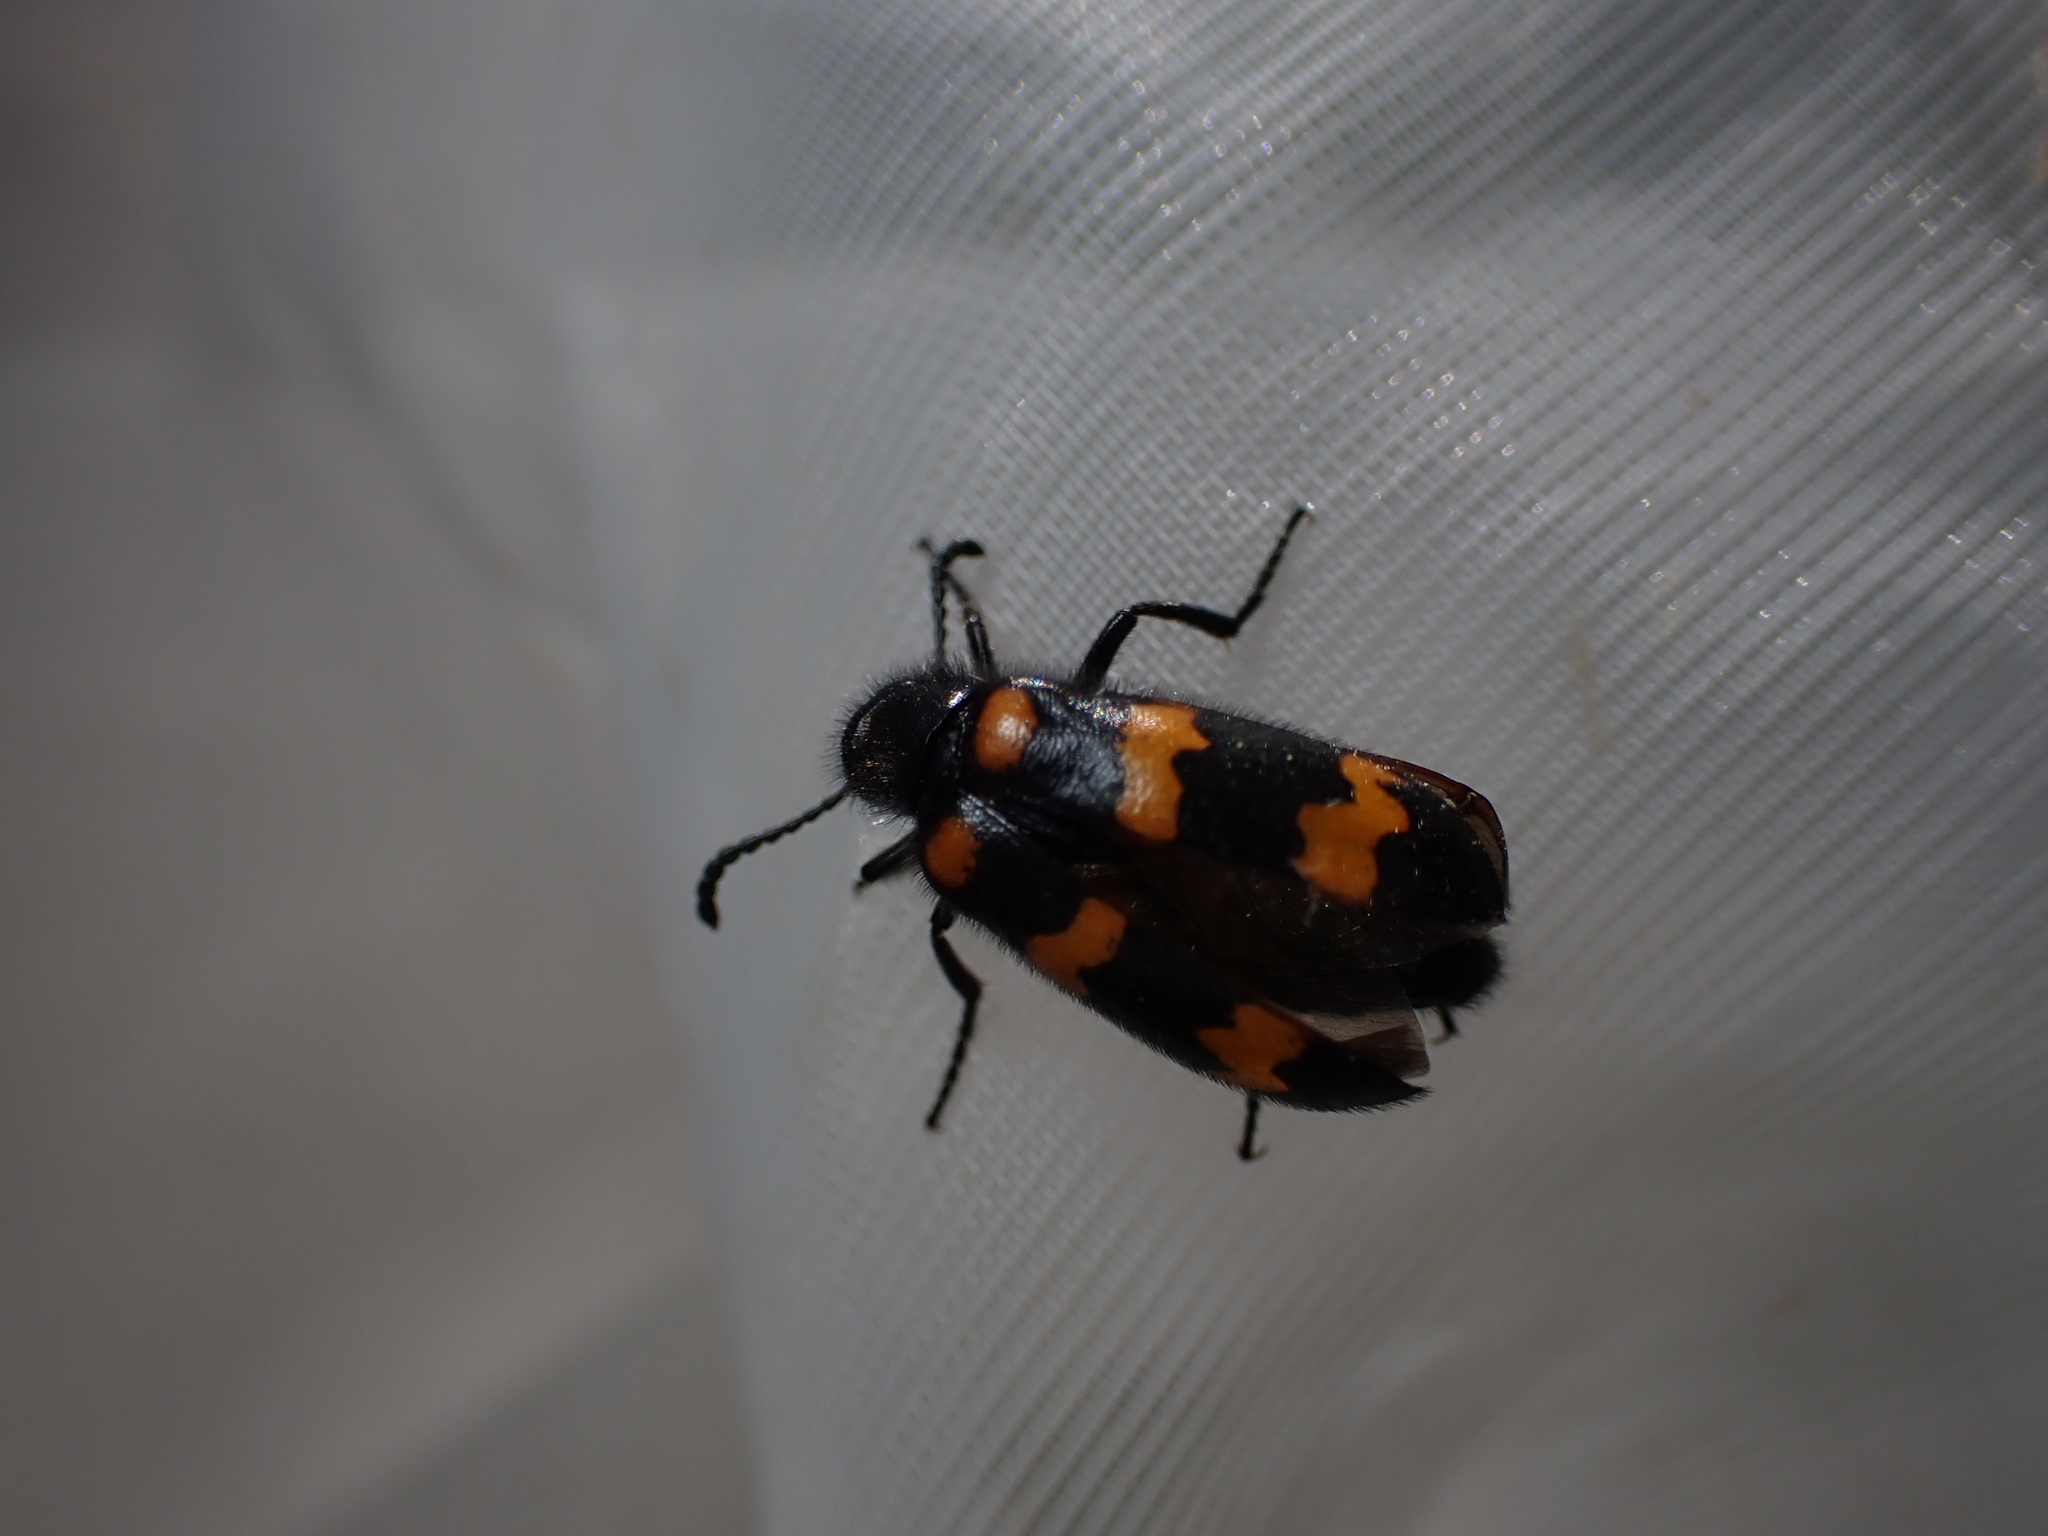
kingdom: Animalia
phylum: Arthropoda
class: Insecta
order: Coleoptera
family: Meloidae
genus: Mylabris
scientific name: Mylabris variabilis
